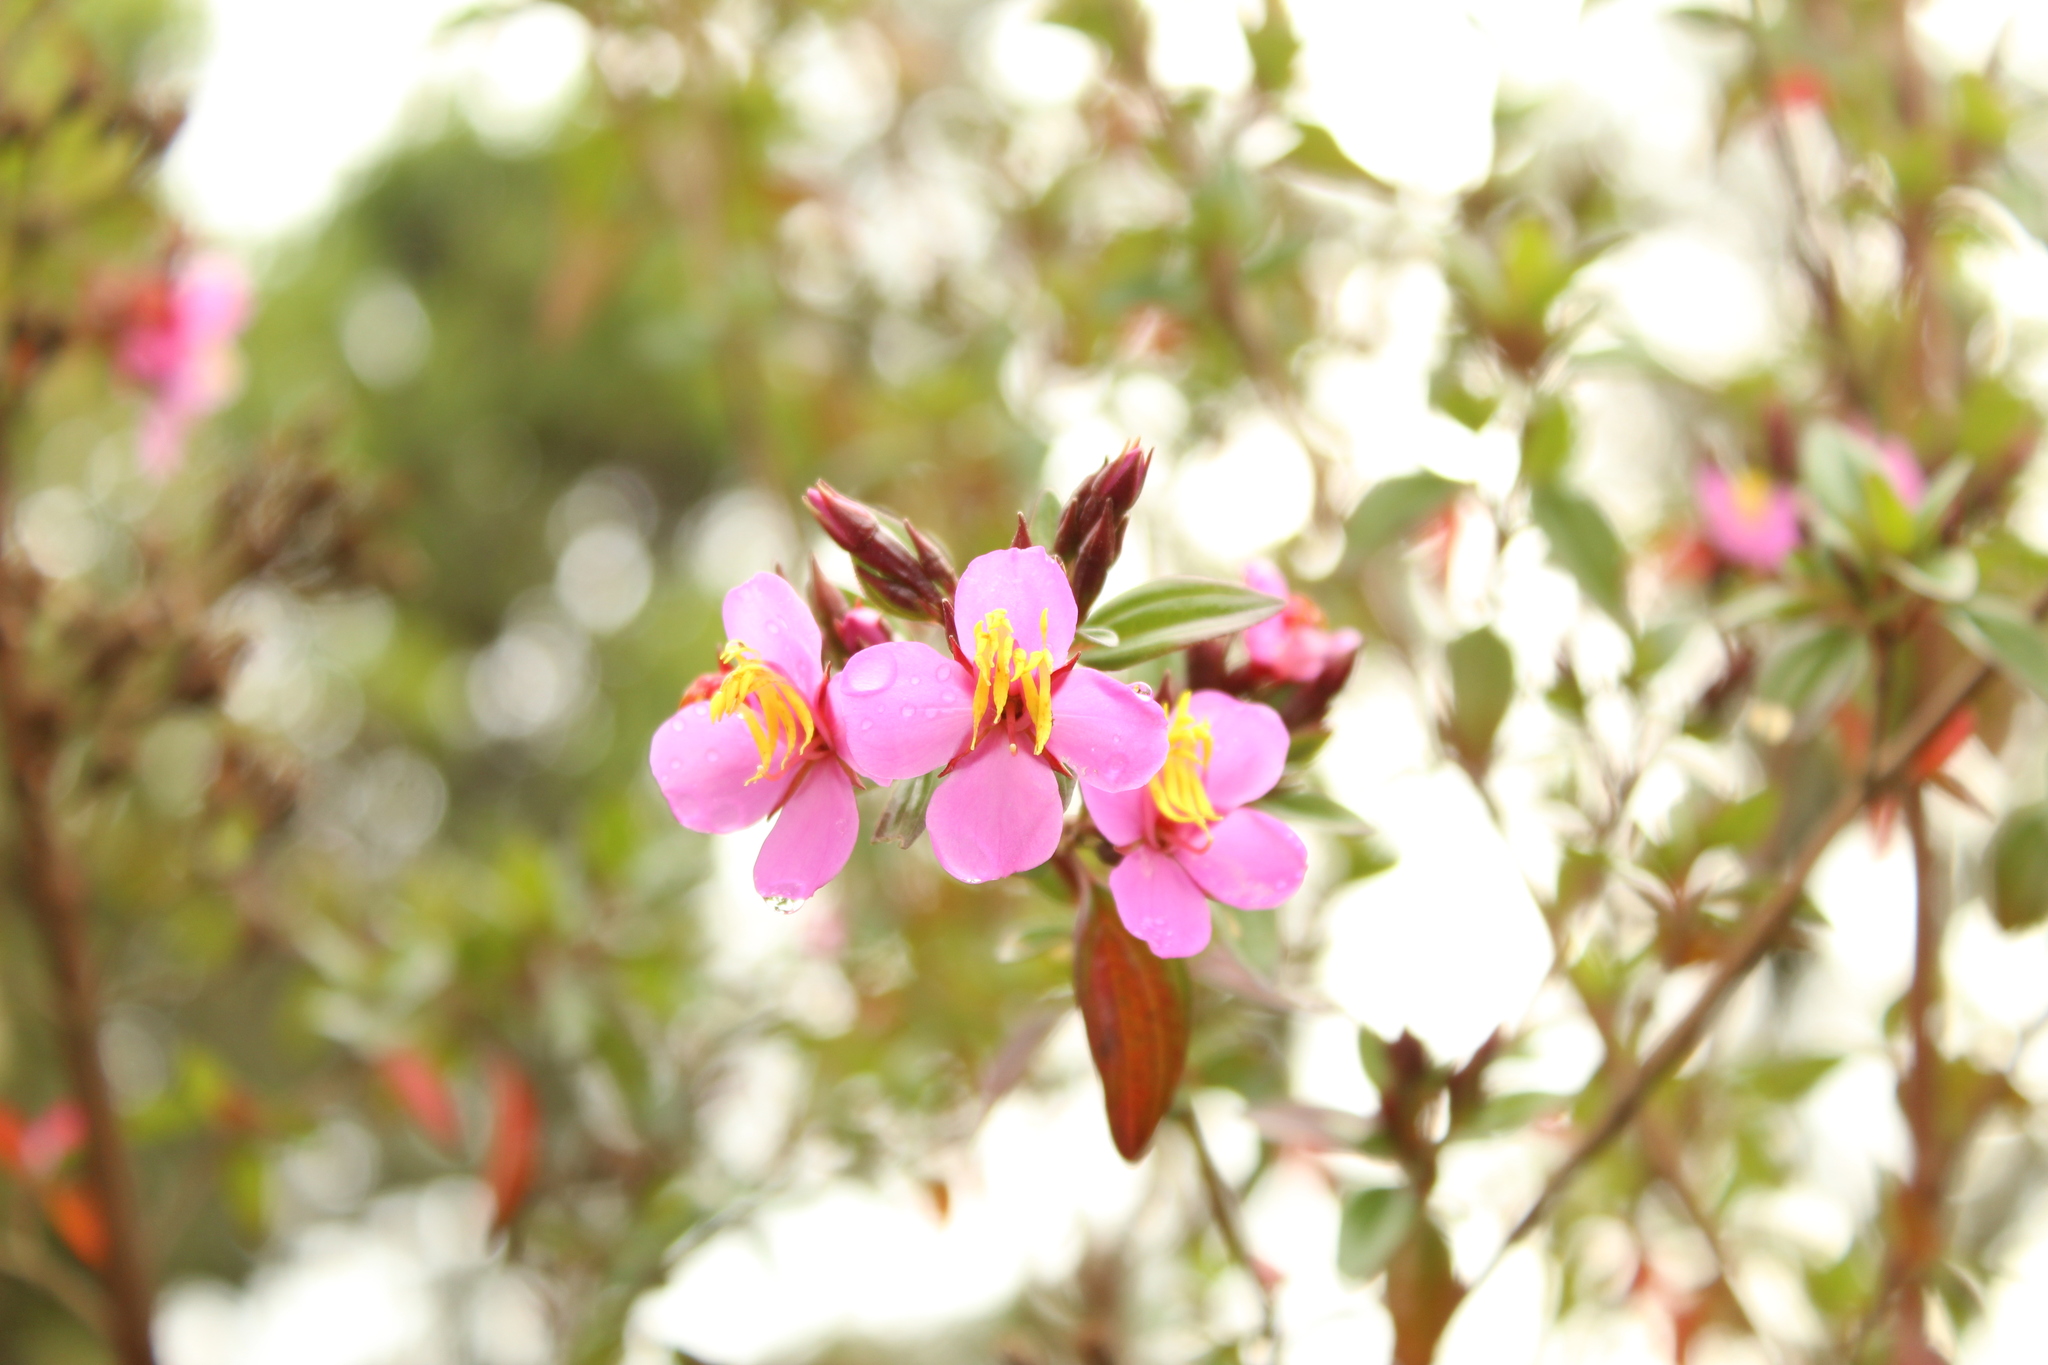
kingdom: Plantae
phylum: Tracheophyta
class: Magnoliopsida
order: Myrtales
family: Melastomataceae
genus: Monochaetum
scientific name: Monochaetum myrtoideum
